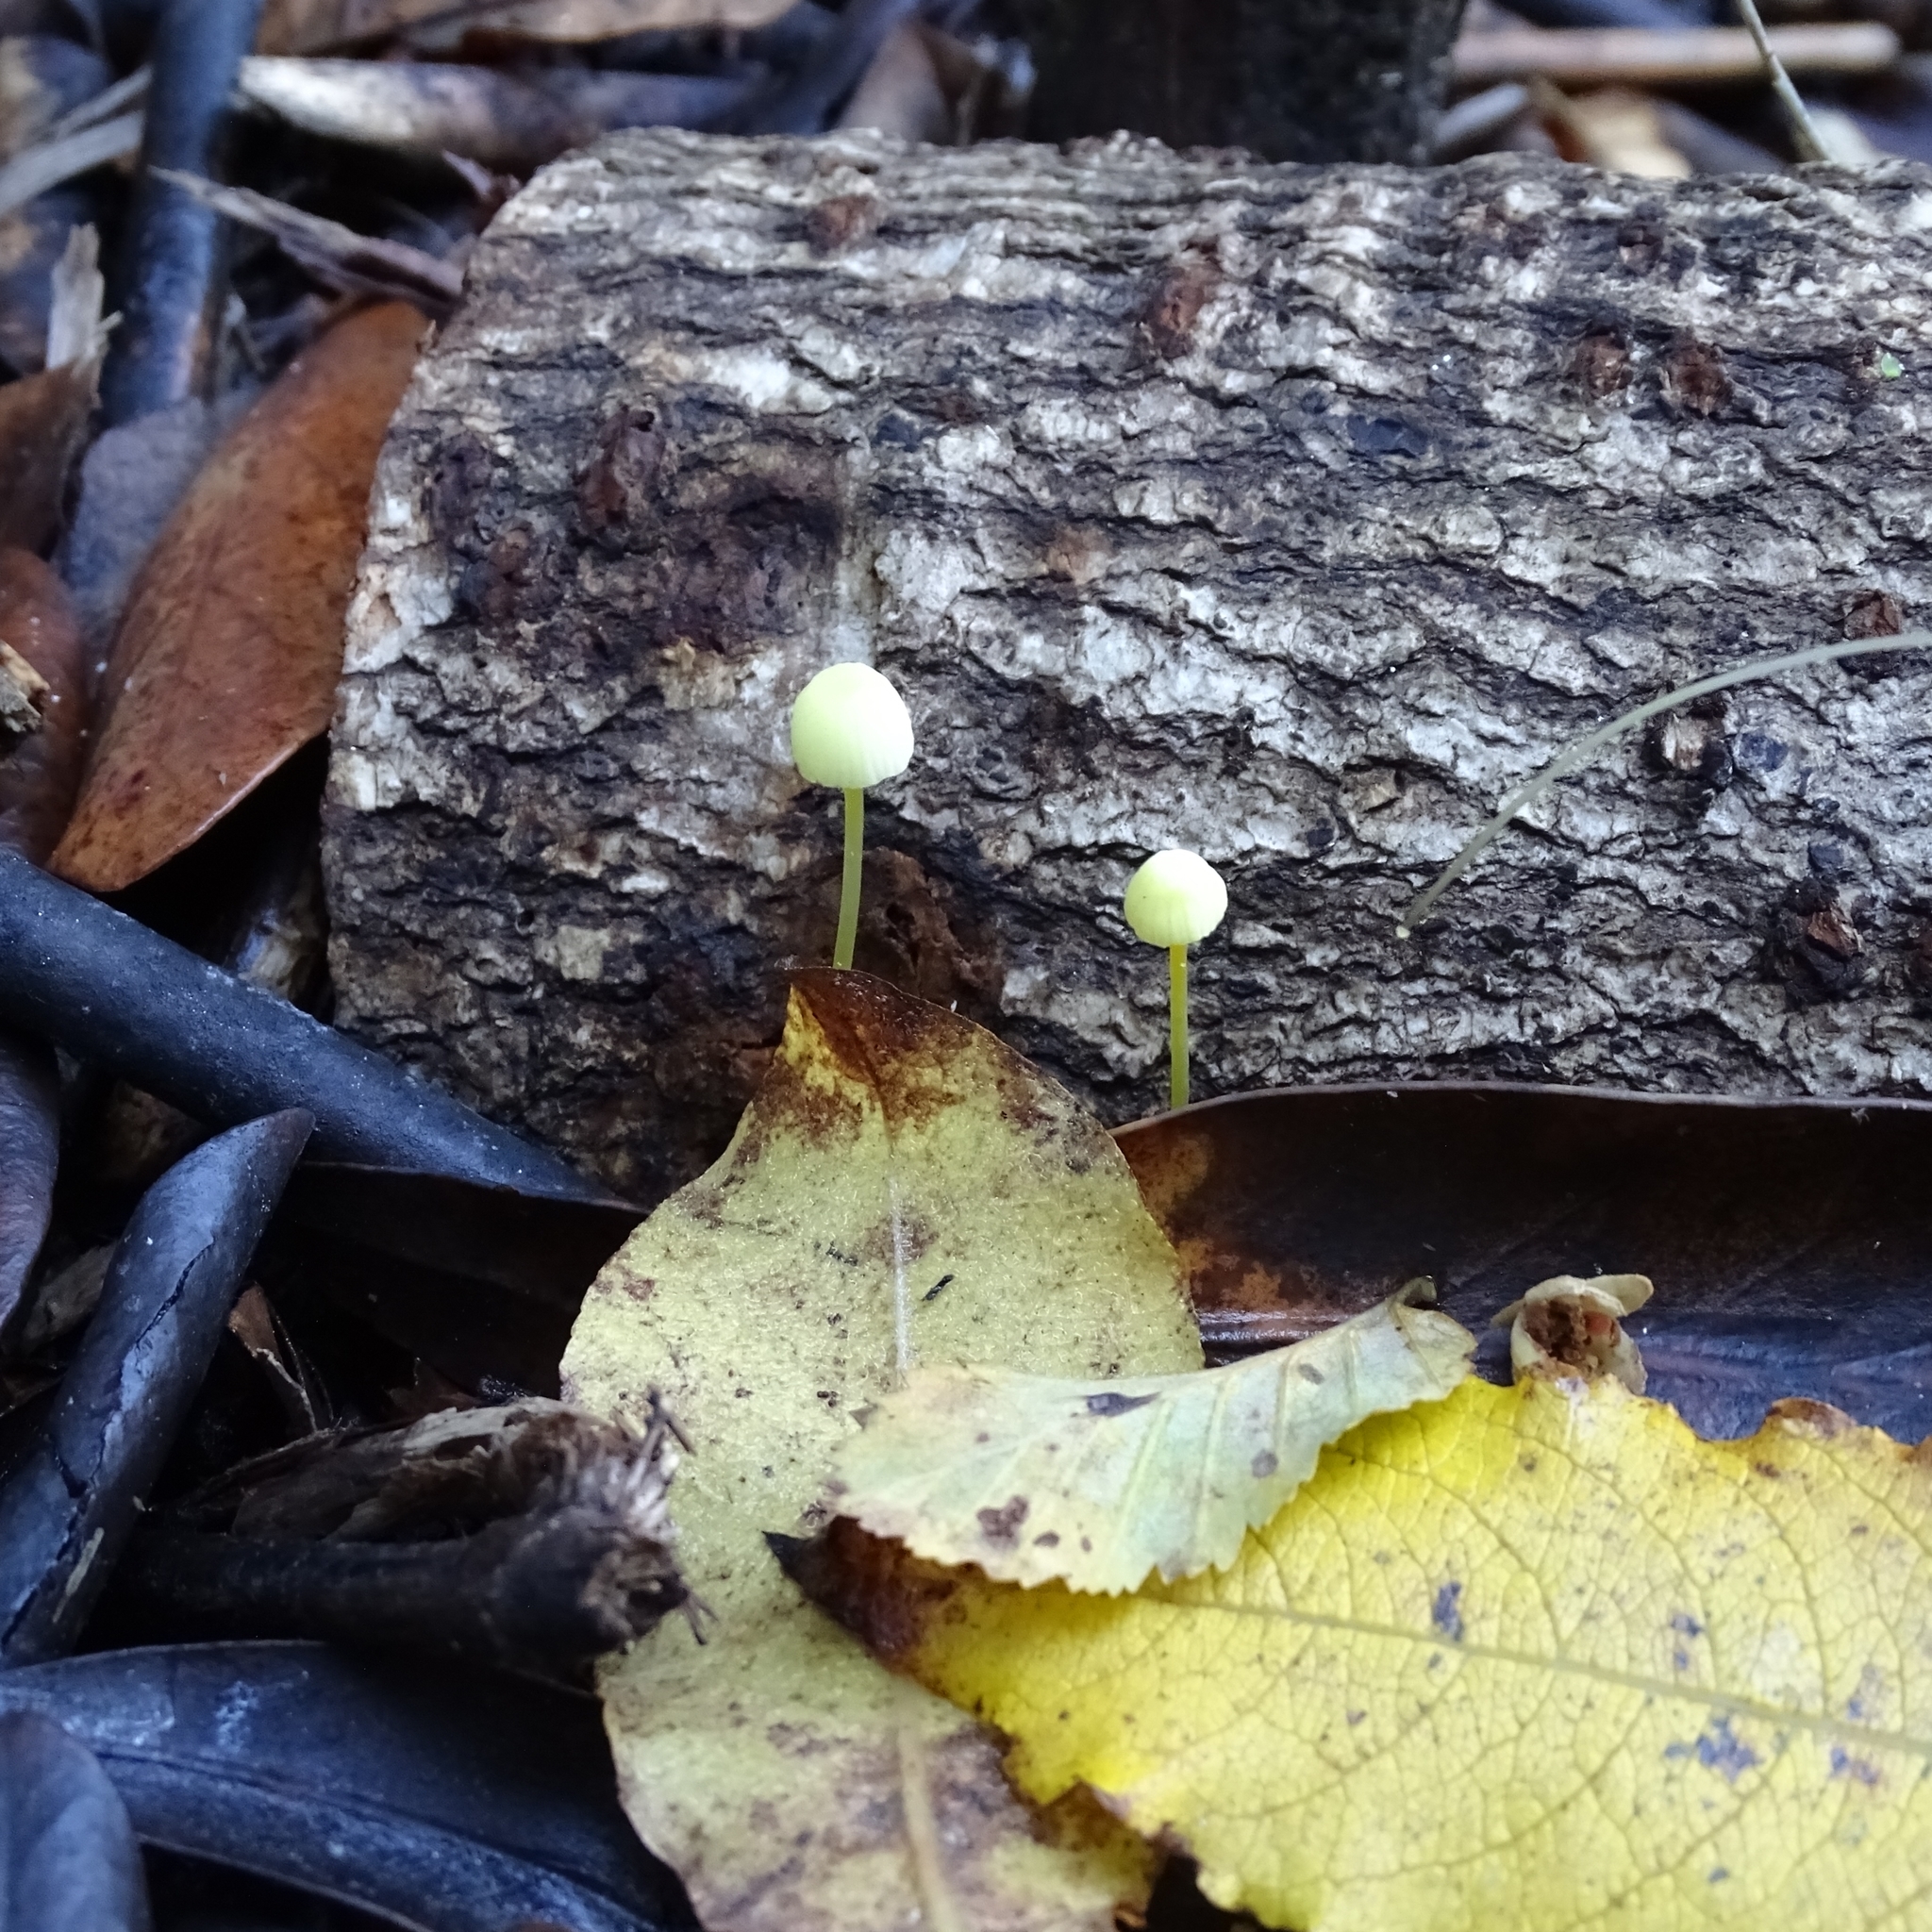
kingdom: Fungi
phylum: Basidiomycota
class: Agaricomycetes
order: Agaricales
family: Mycenaceae
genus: Mycena
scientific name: Mycena chusqueophila
